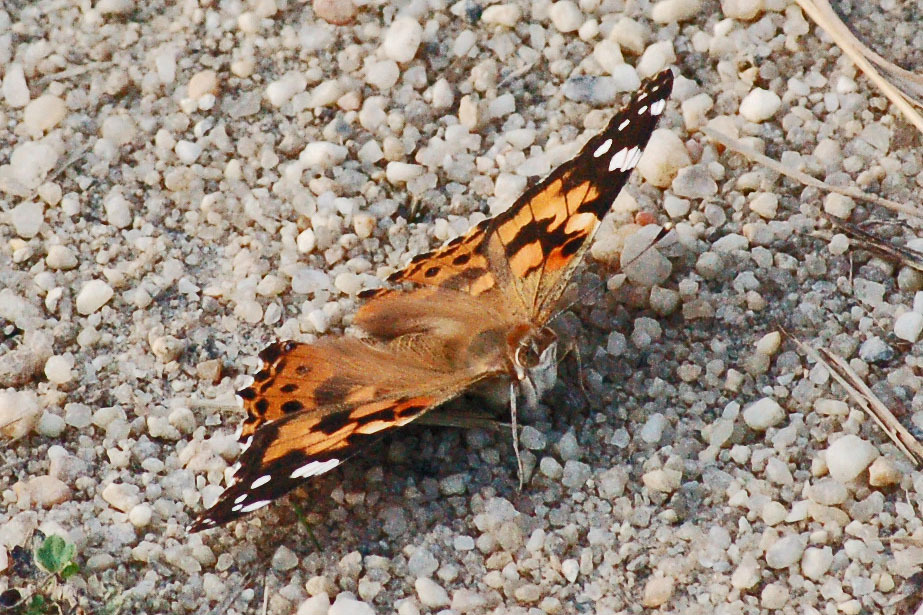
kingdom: Animalia
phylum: Arthropoda
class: Insecta
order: Lepidoptera
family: Nymphalidae
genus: Vanessa
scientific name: Vanessa cardui
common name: Painted lady
